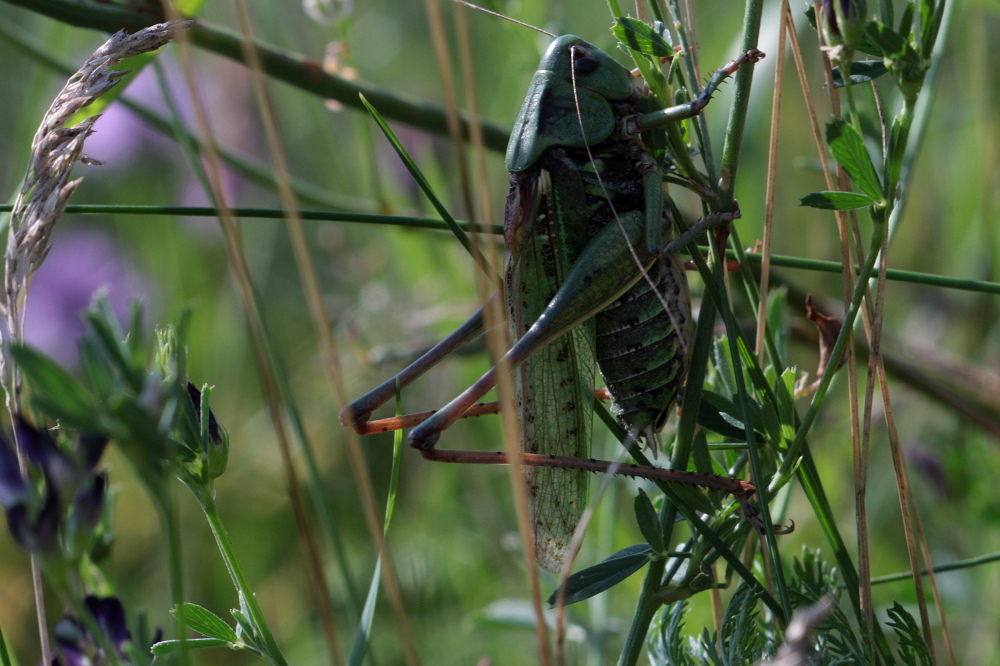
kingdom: Animalia
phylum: Arthropoda
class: Insecta
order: Orthoptera
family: Tettigoniidae
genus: Decticus
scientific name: Decticus verrucivorus
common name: Wart-biter
